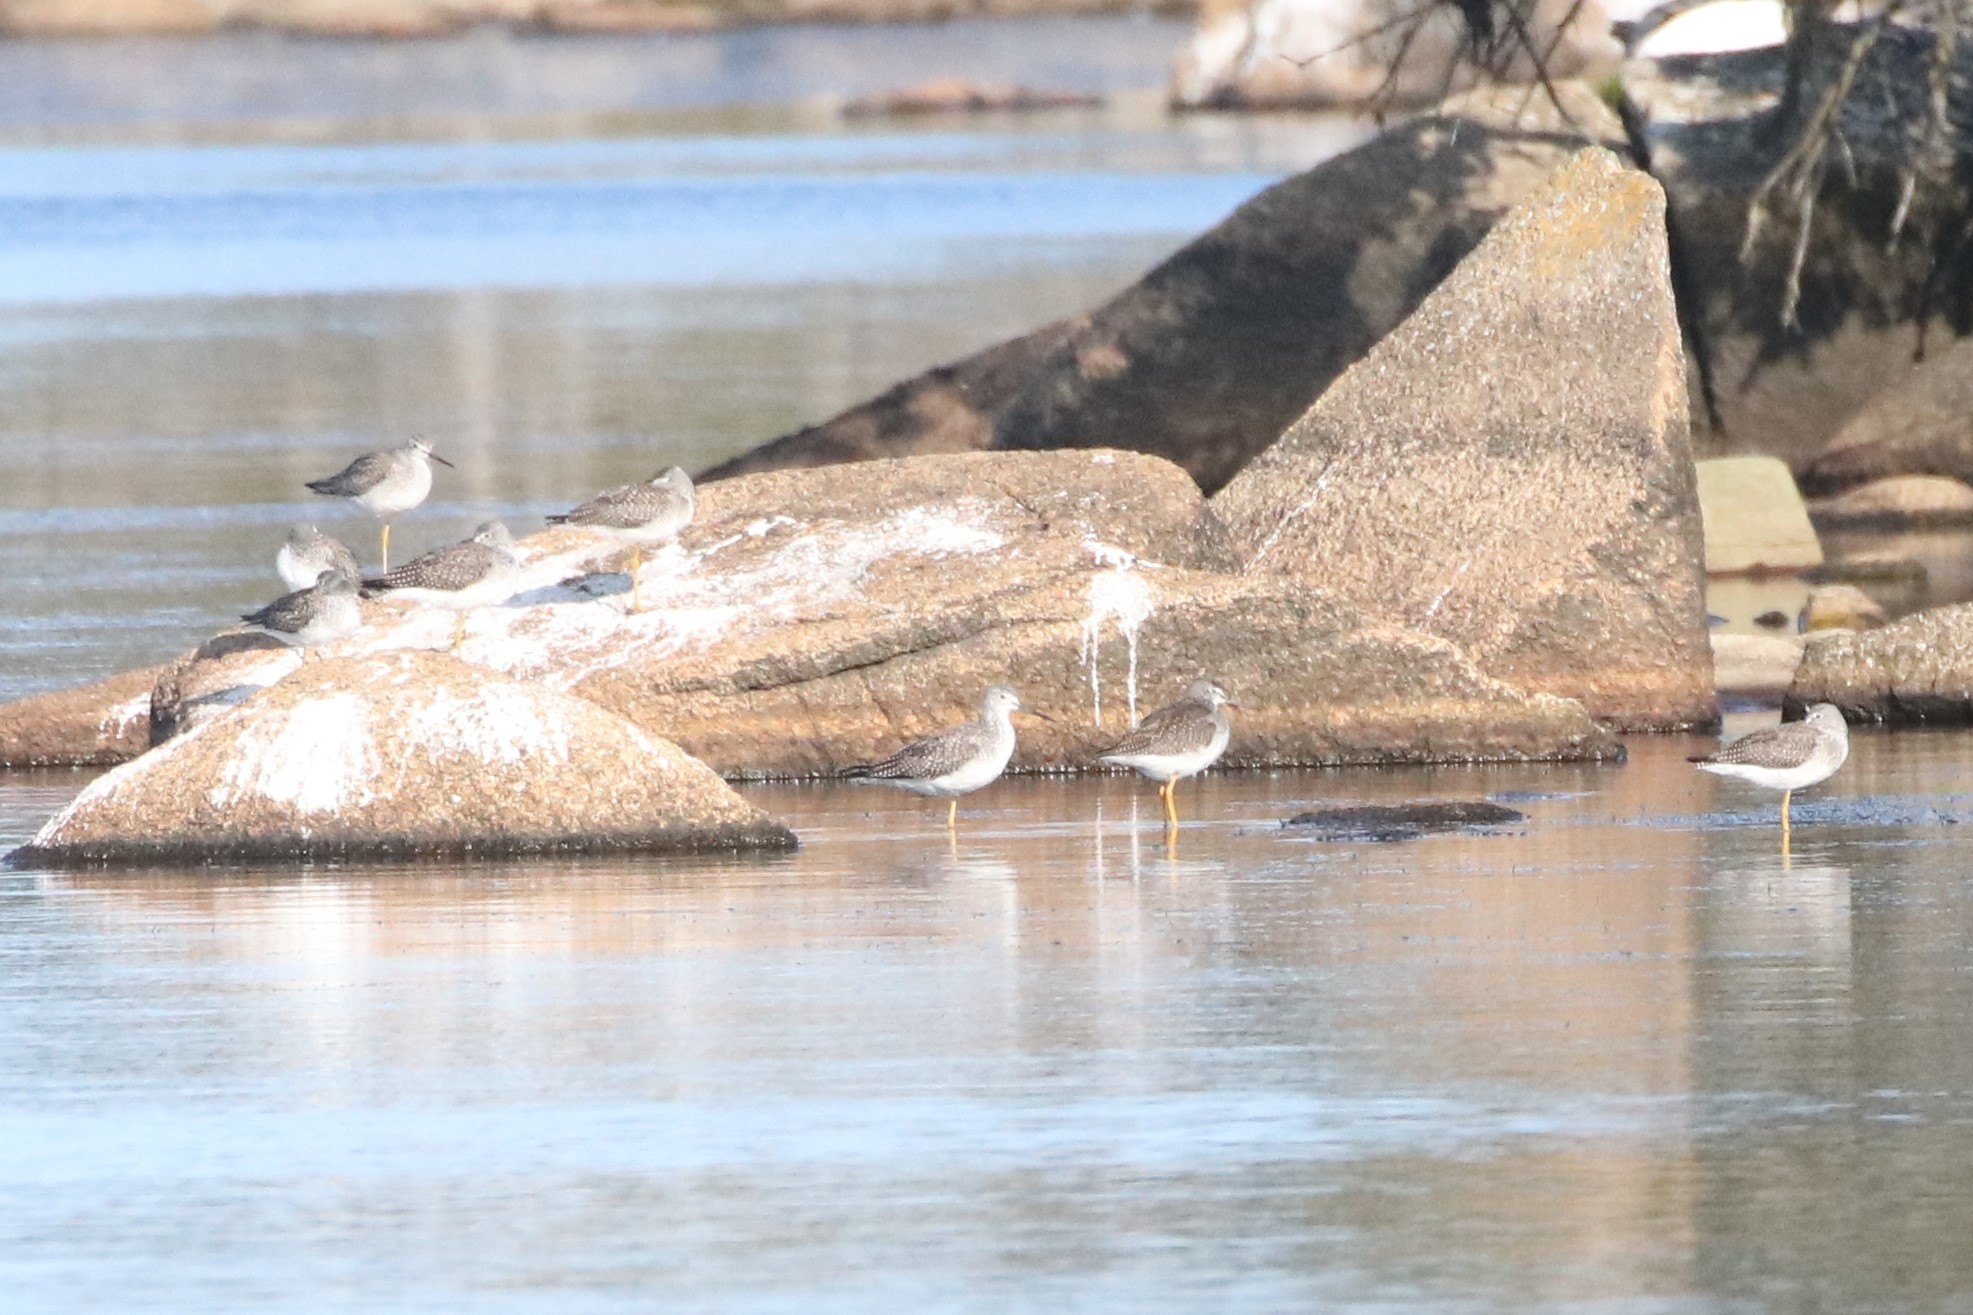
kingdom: Animalia
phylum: Chordata
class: Aves
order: Charadriiformes
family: Scolopacidae
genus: Tringa
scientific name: Tringa melanoleuca
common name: Greater yellowlegs
